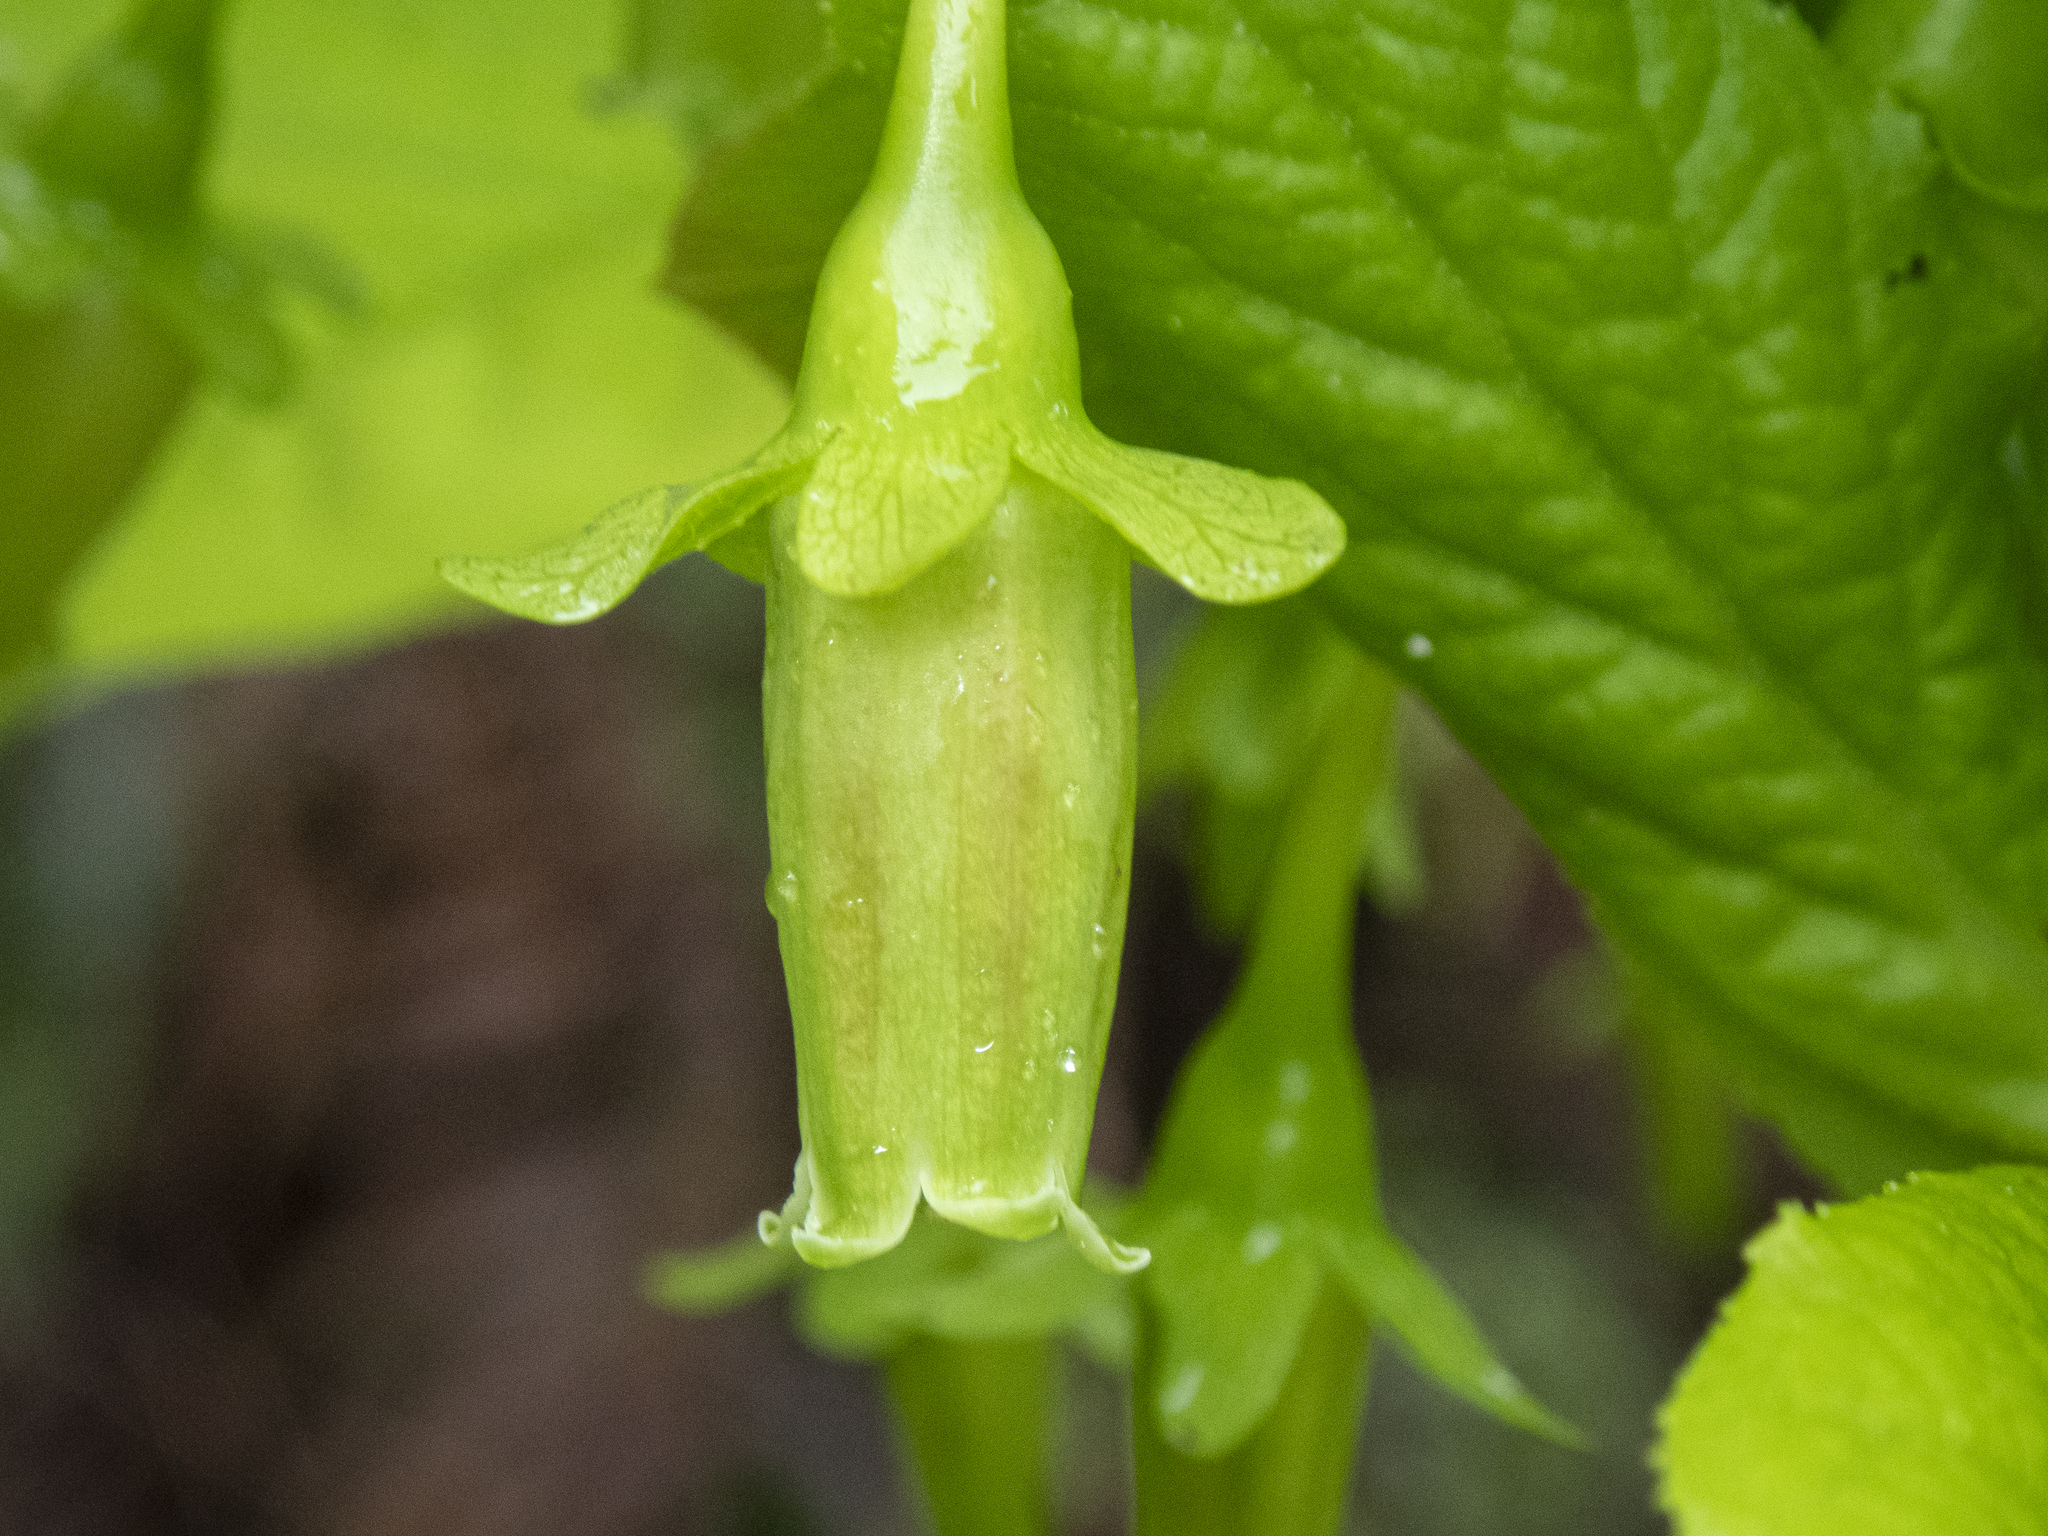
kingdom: Plantae
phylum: Tracheophyta
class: Magnoliopsida
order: Ericales
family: Ericaceae
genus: Vaccinium
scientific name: Vaccinium calycinum
